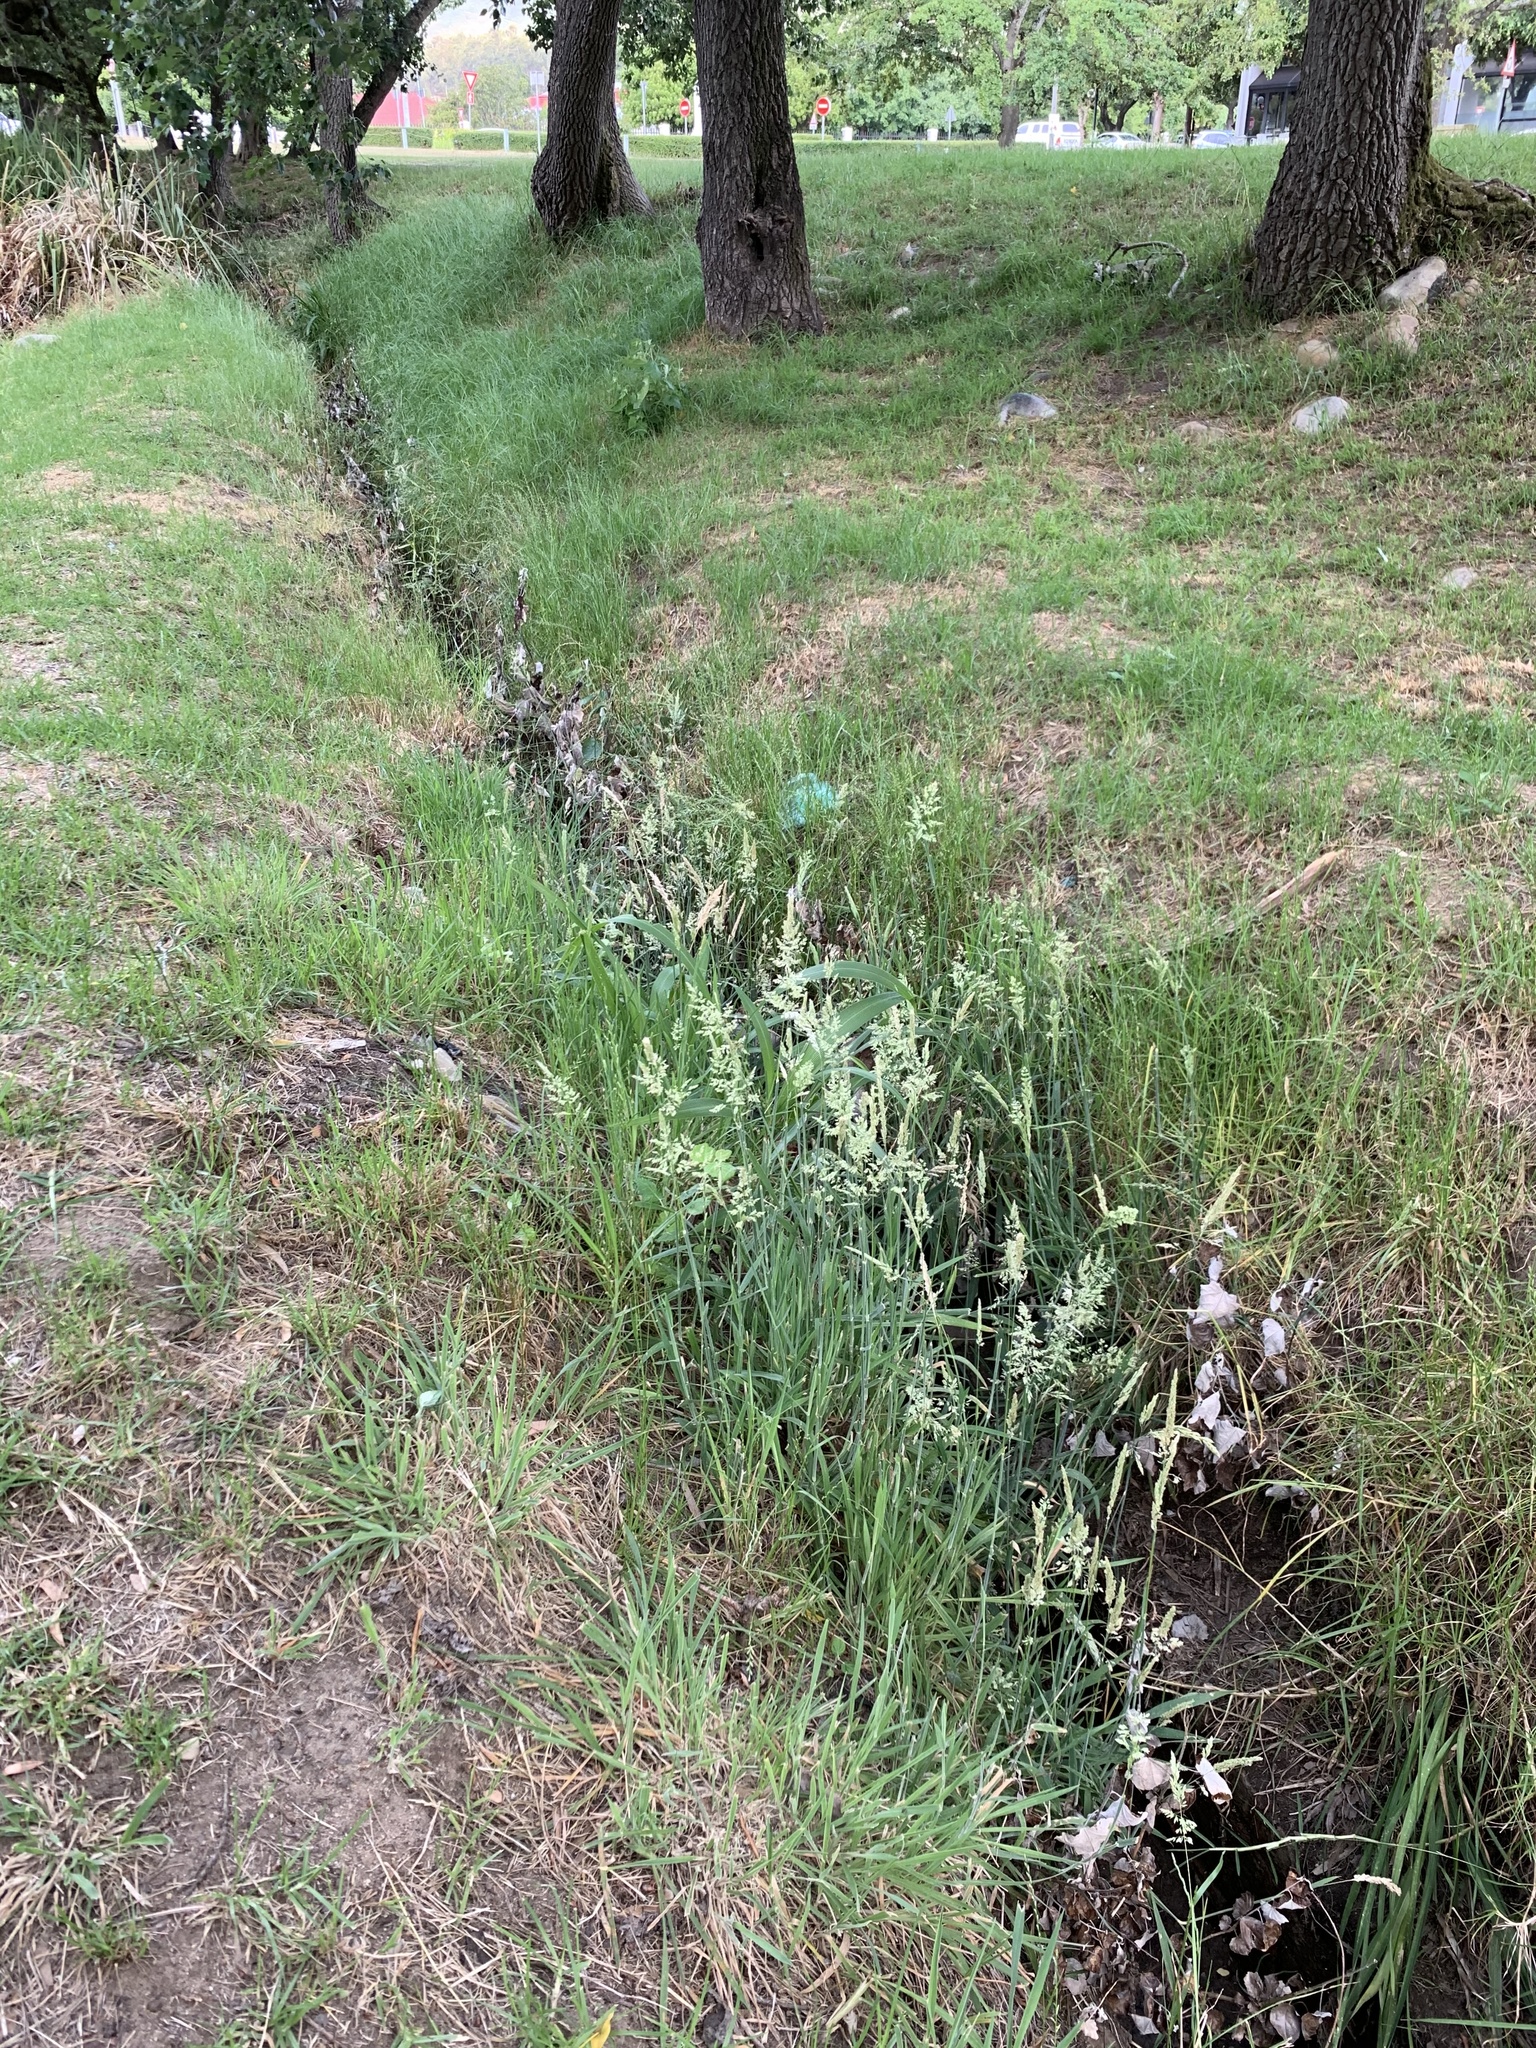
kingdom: Plantae
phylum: Tracheophyta
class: Liliopsida
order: Poales
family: Poaceae
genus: Holcus
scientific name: Holcus lanatus
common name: Yorkshire-fog
